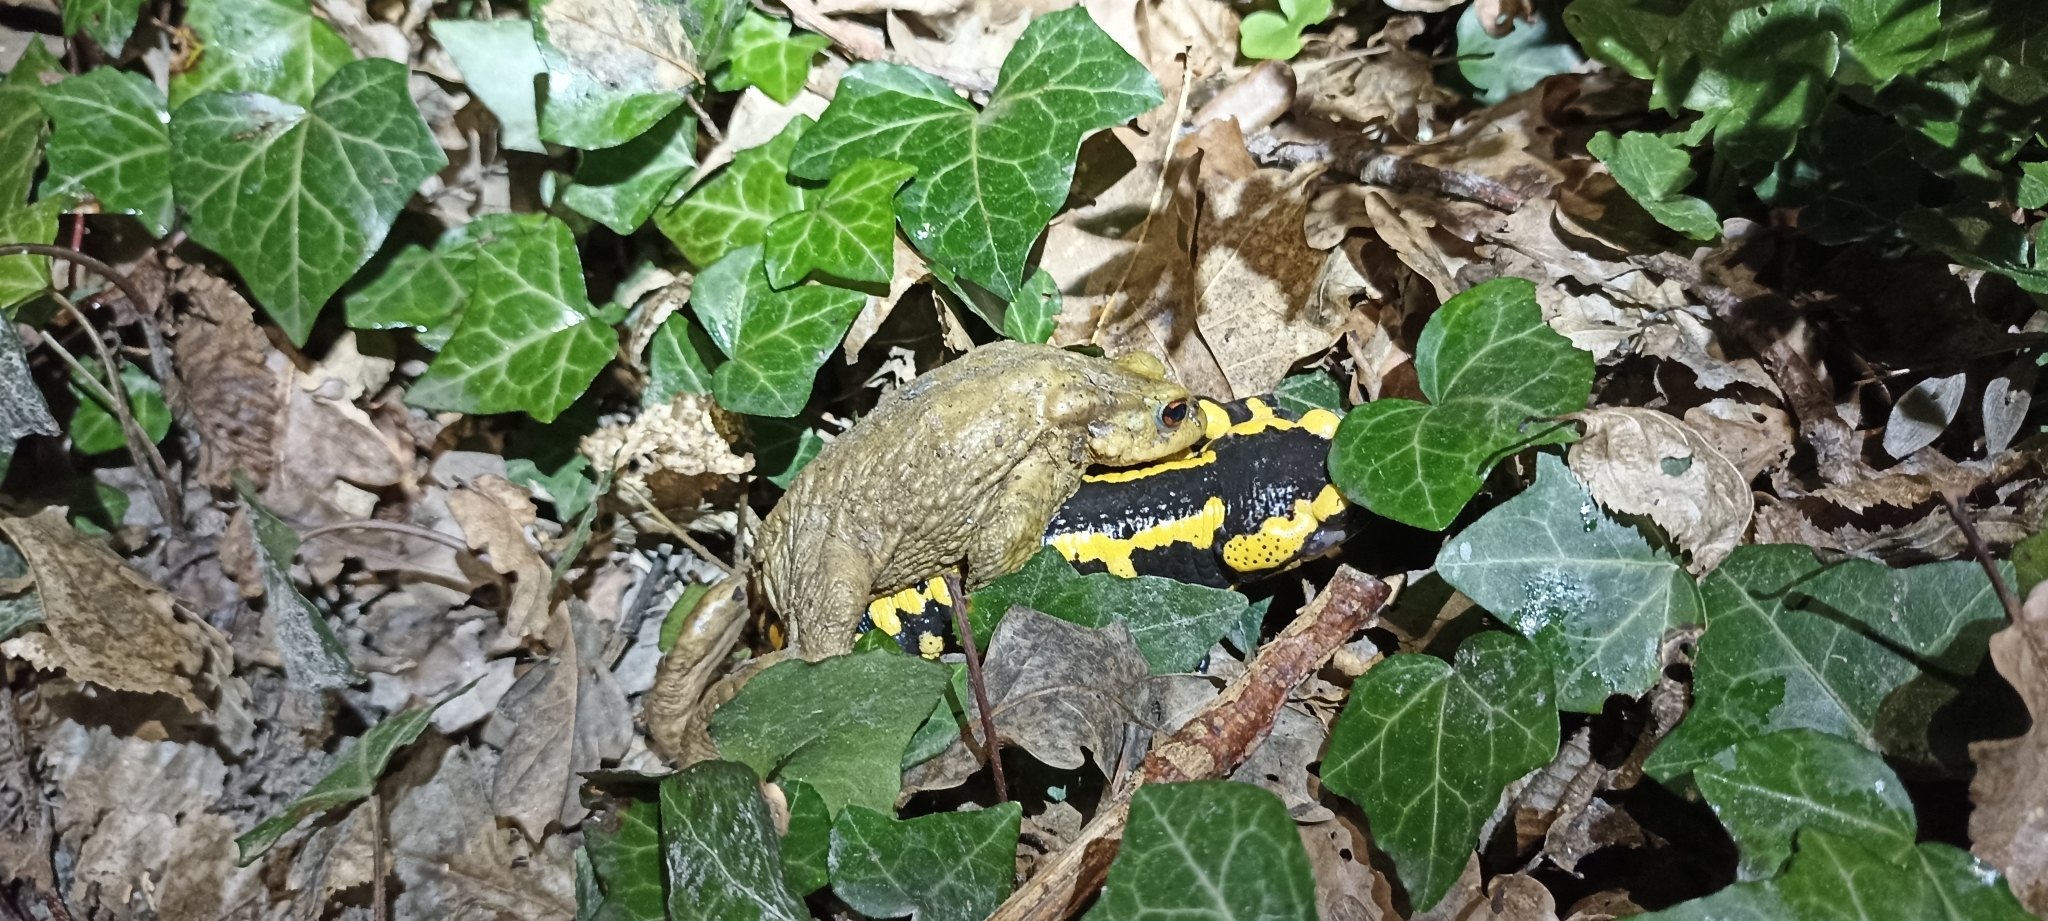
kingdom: Animalia
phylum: Chordata
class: Amphibia
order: Anura
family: Bufonidae
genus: Bufo
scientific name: Bufo spinosus
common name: Western common toad
